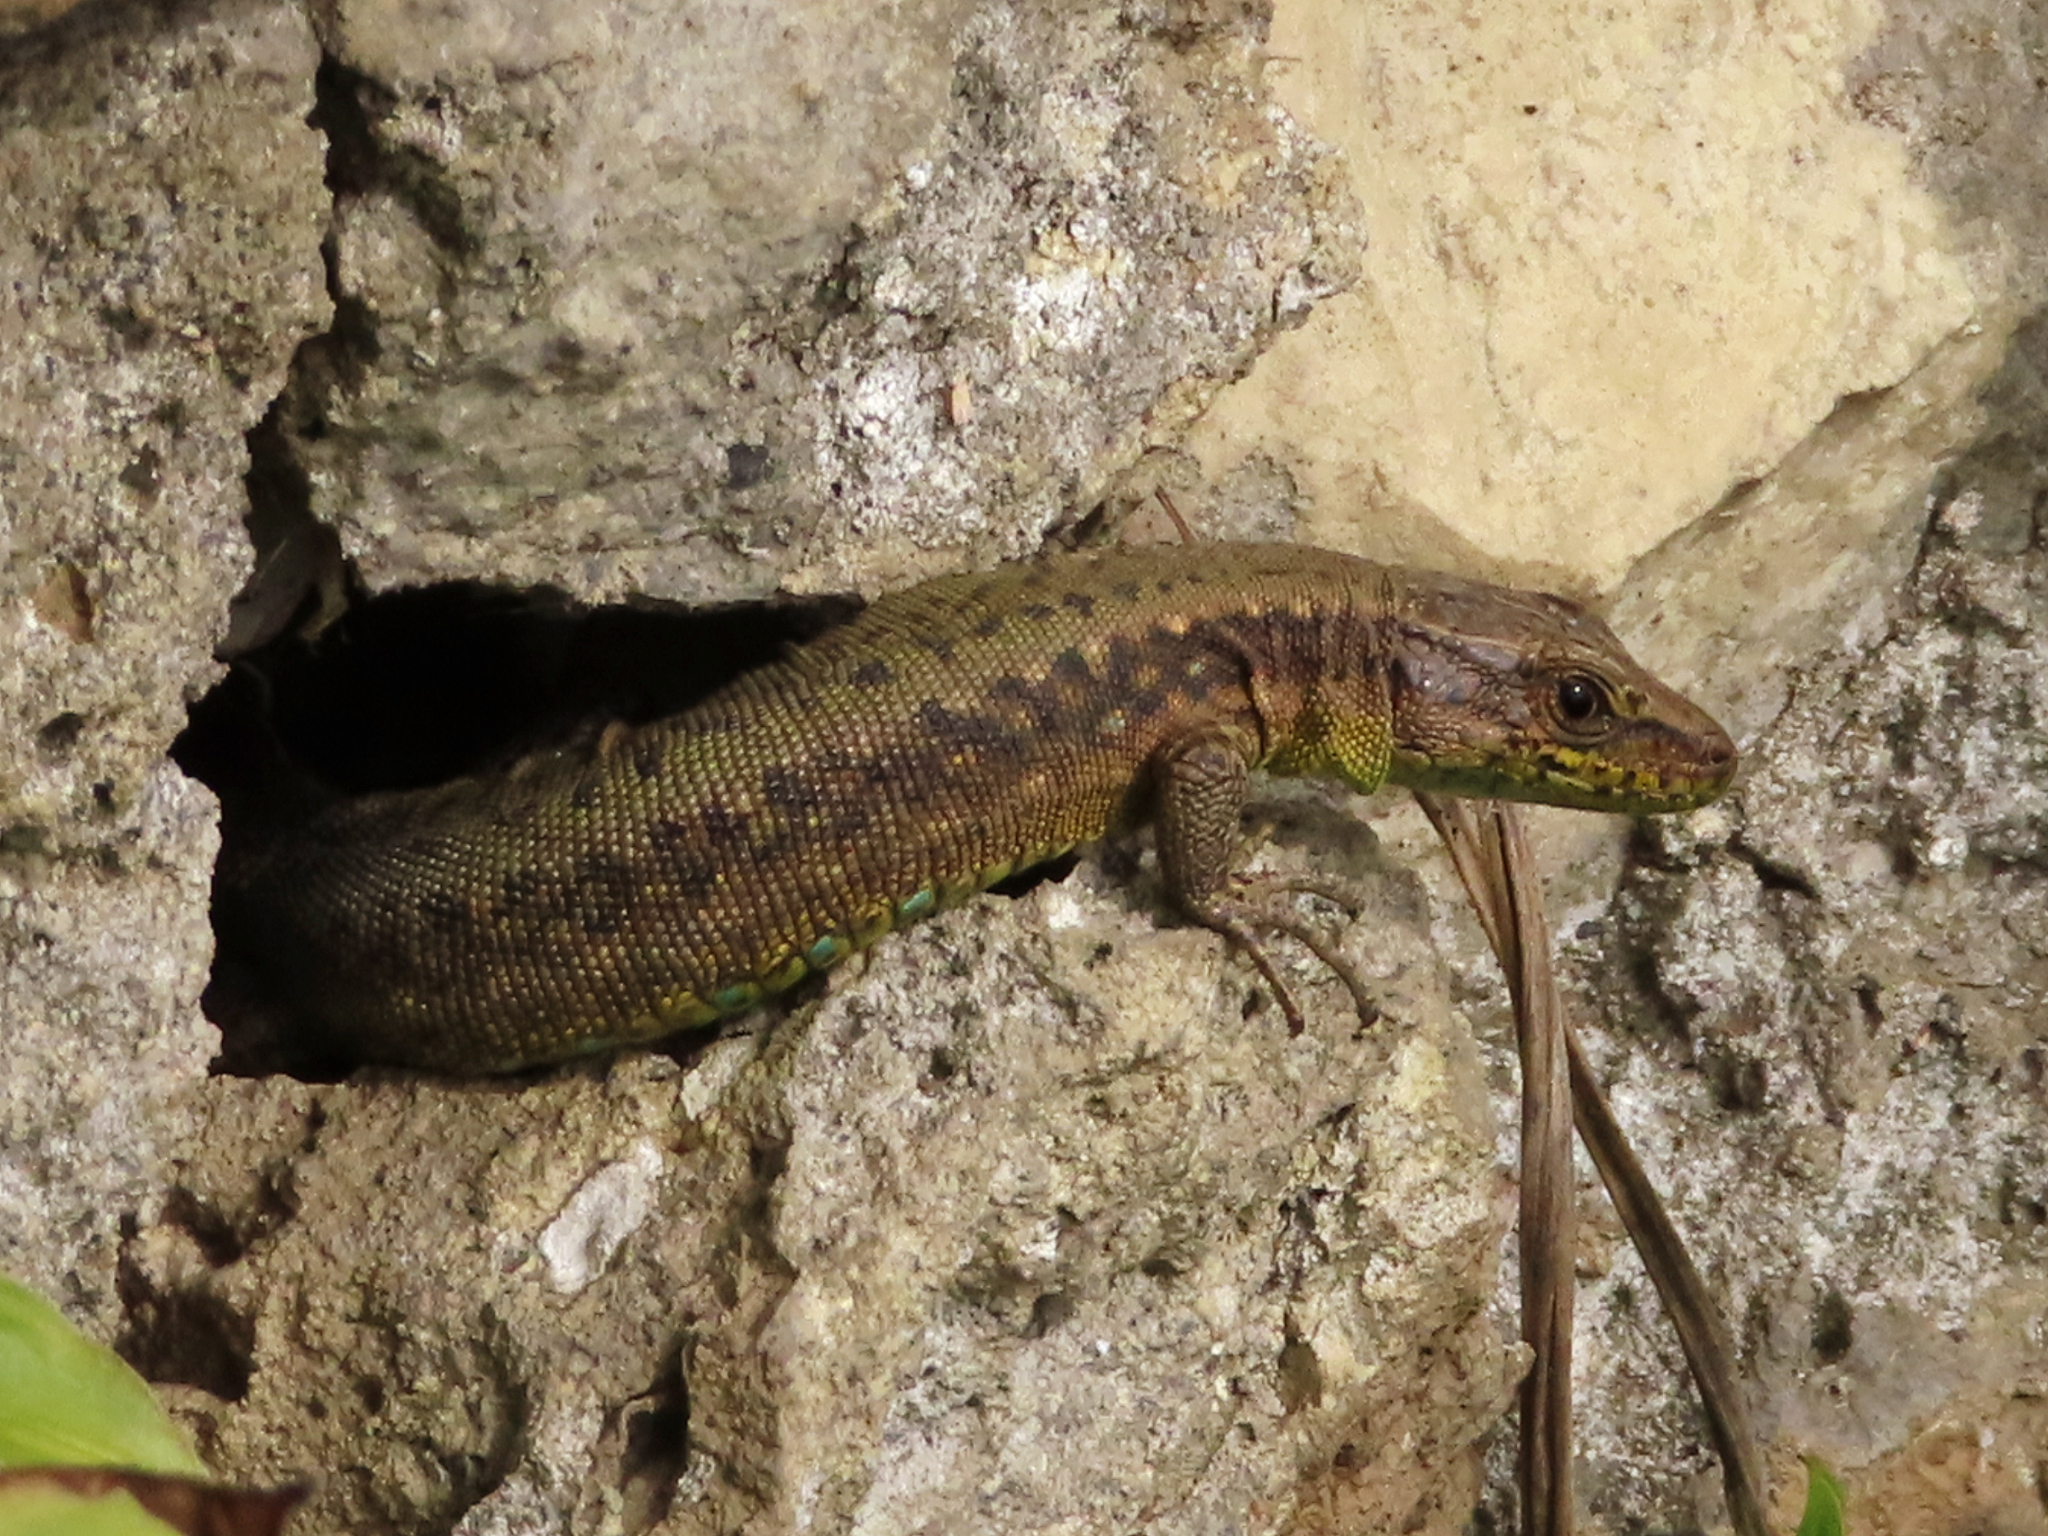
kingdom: Animalia
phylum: Chordata
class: Squamata
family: Lacertidae
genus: Darevskia
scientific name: Darevskia mixta
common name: Ajarian lizard
